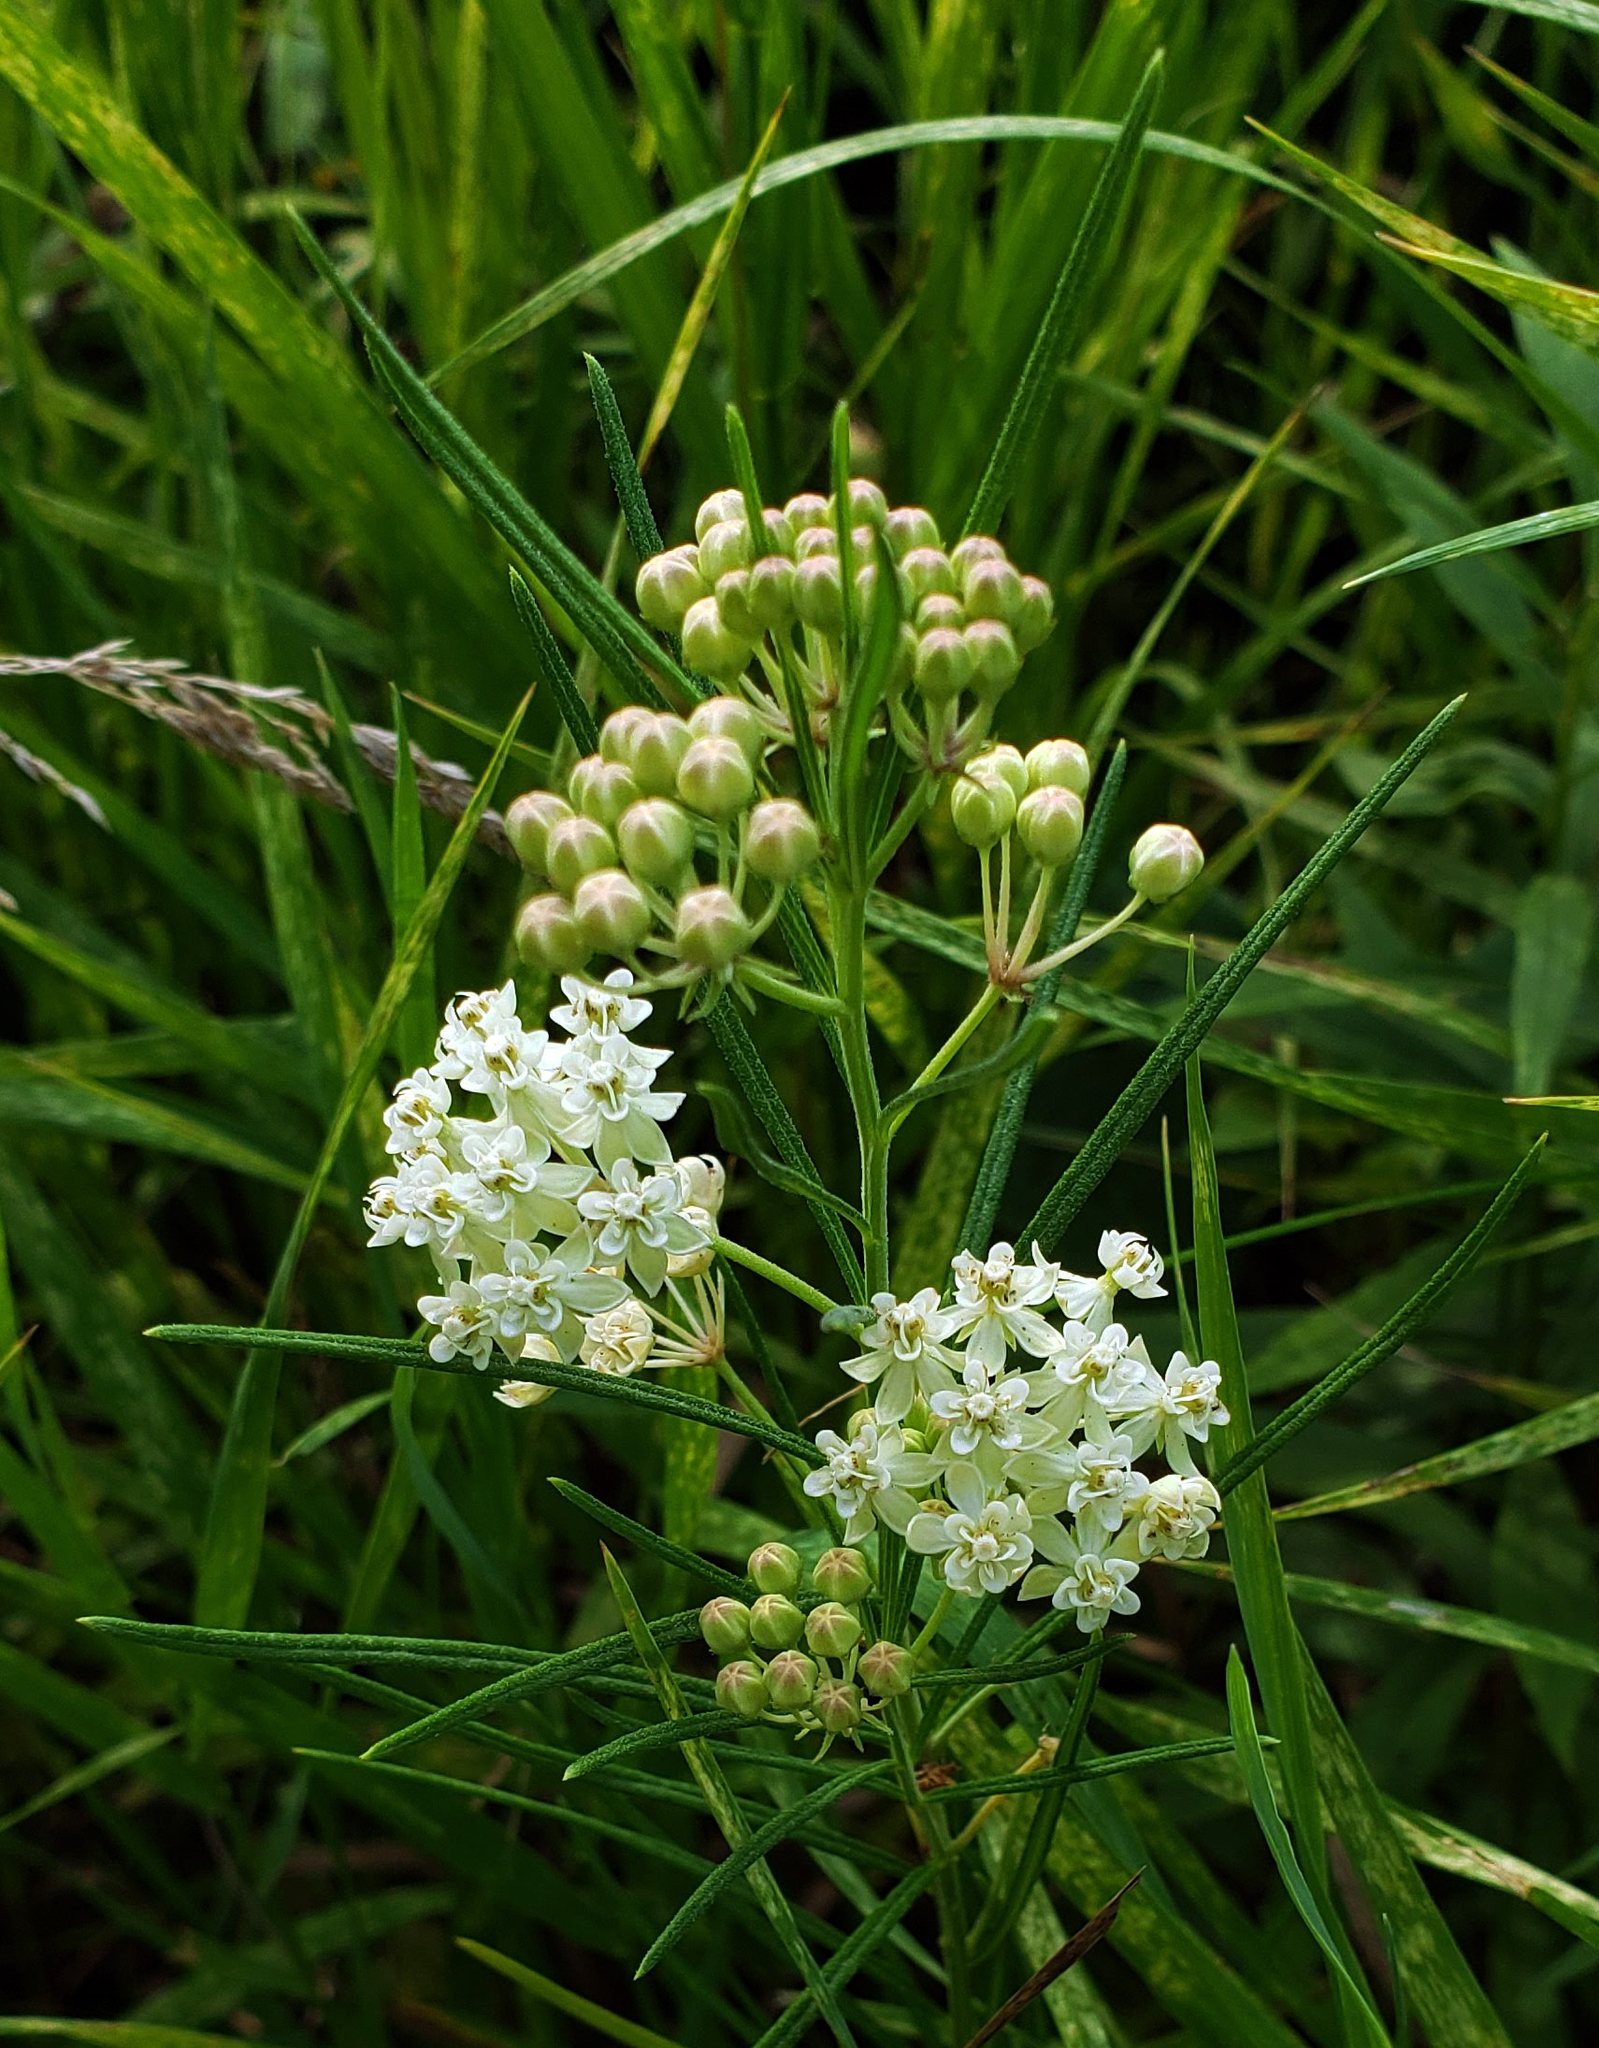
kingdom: Plantae
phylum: Tracheophyta
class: Magnoliopsida
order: Gentianales
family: Apocynaceae
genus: Asclepias
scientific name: Asclepias verticillata
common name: Eastern whorled milkweed
